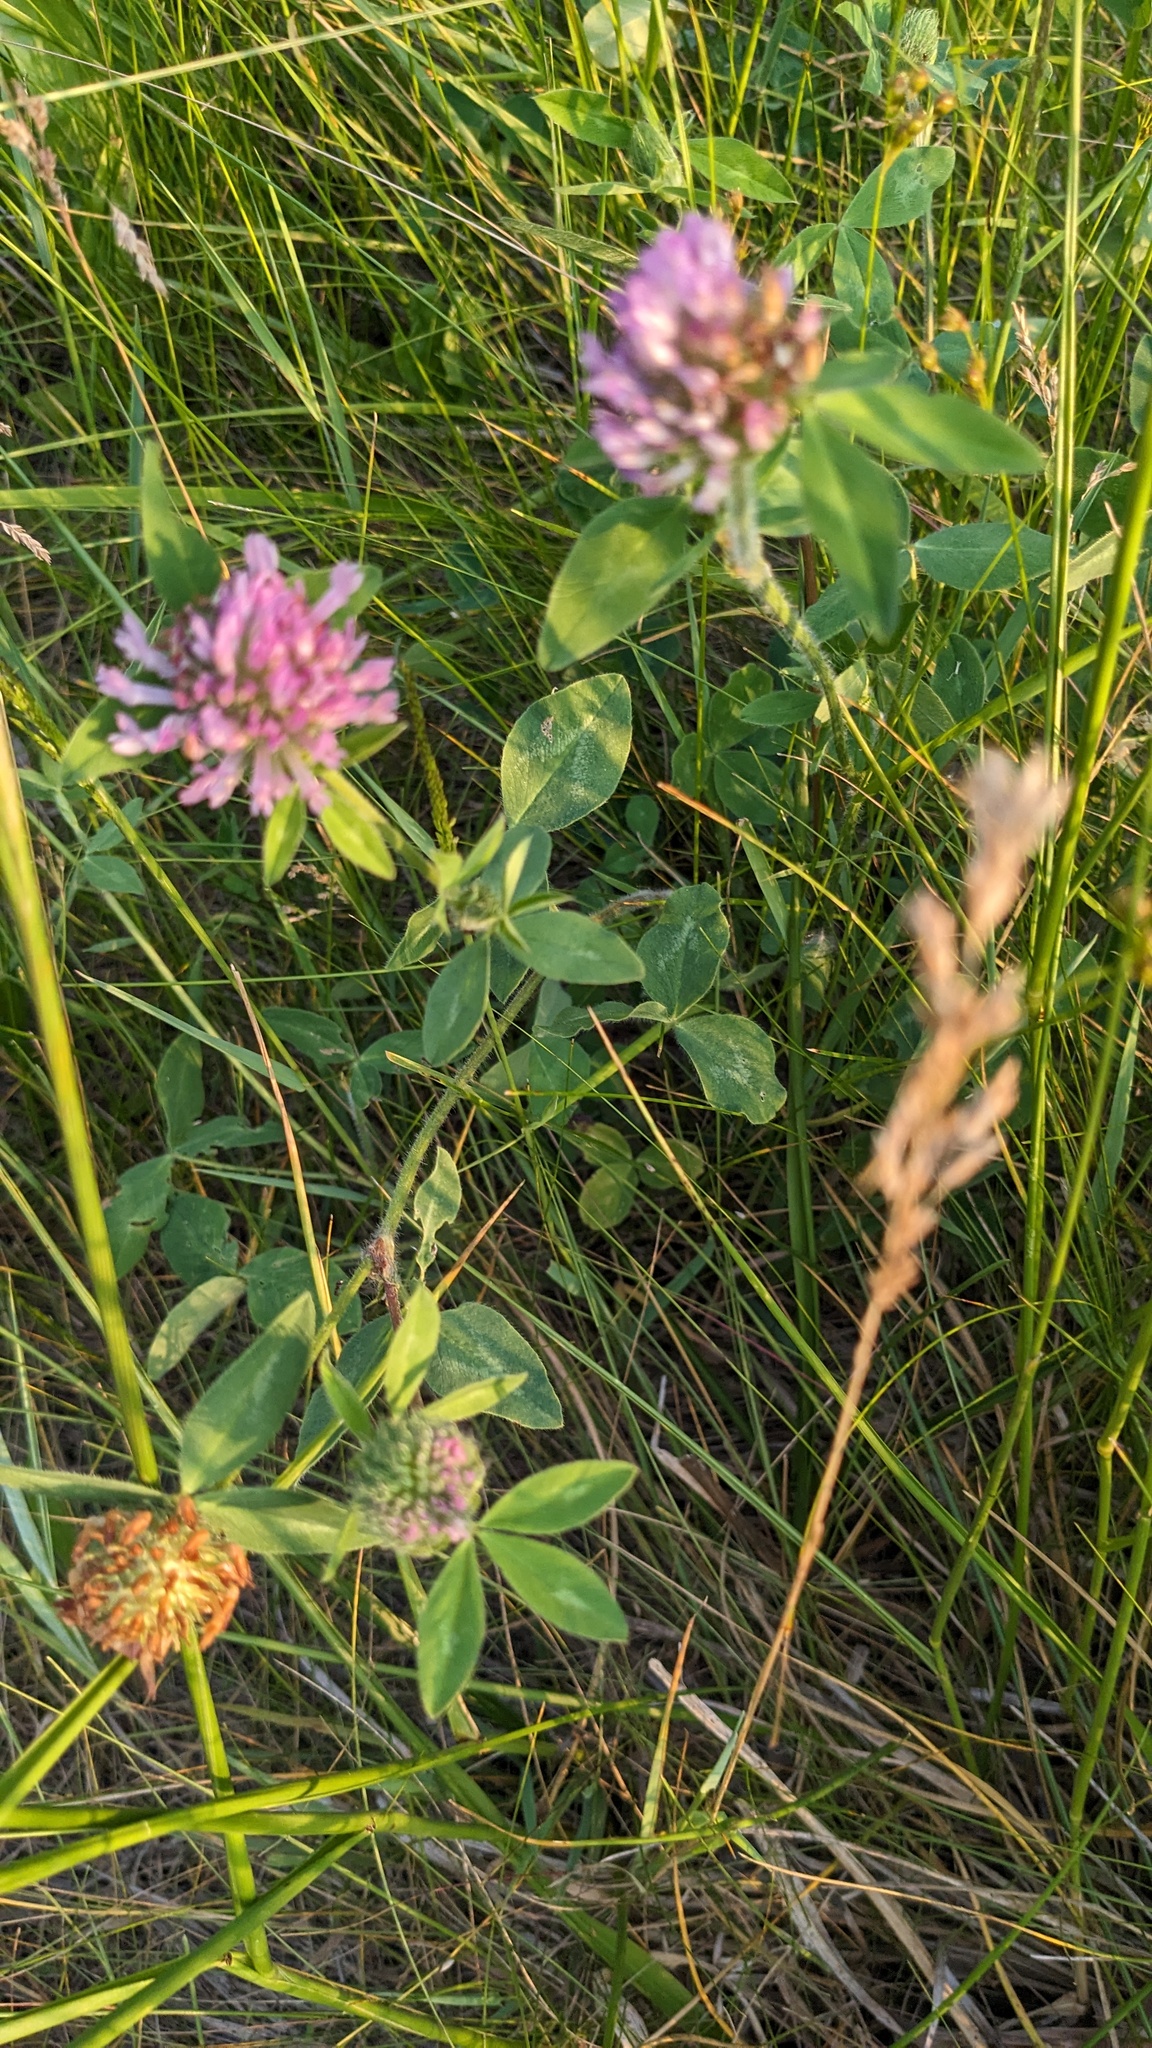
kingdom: Plantae
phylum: Tracheophyta
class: Magnoliopsida
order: Fabales
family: Fabaceae
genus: Trifolium
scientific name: Trifolium pratense
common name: Red clover
